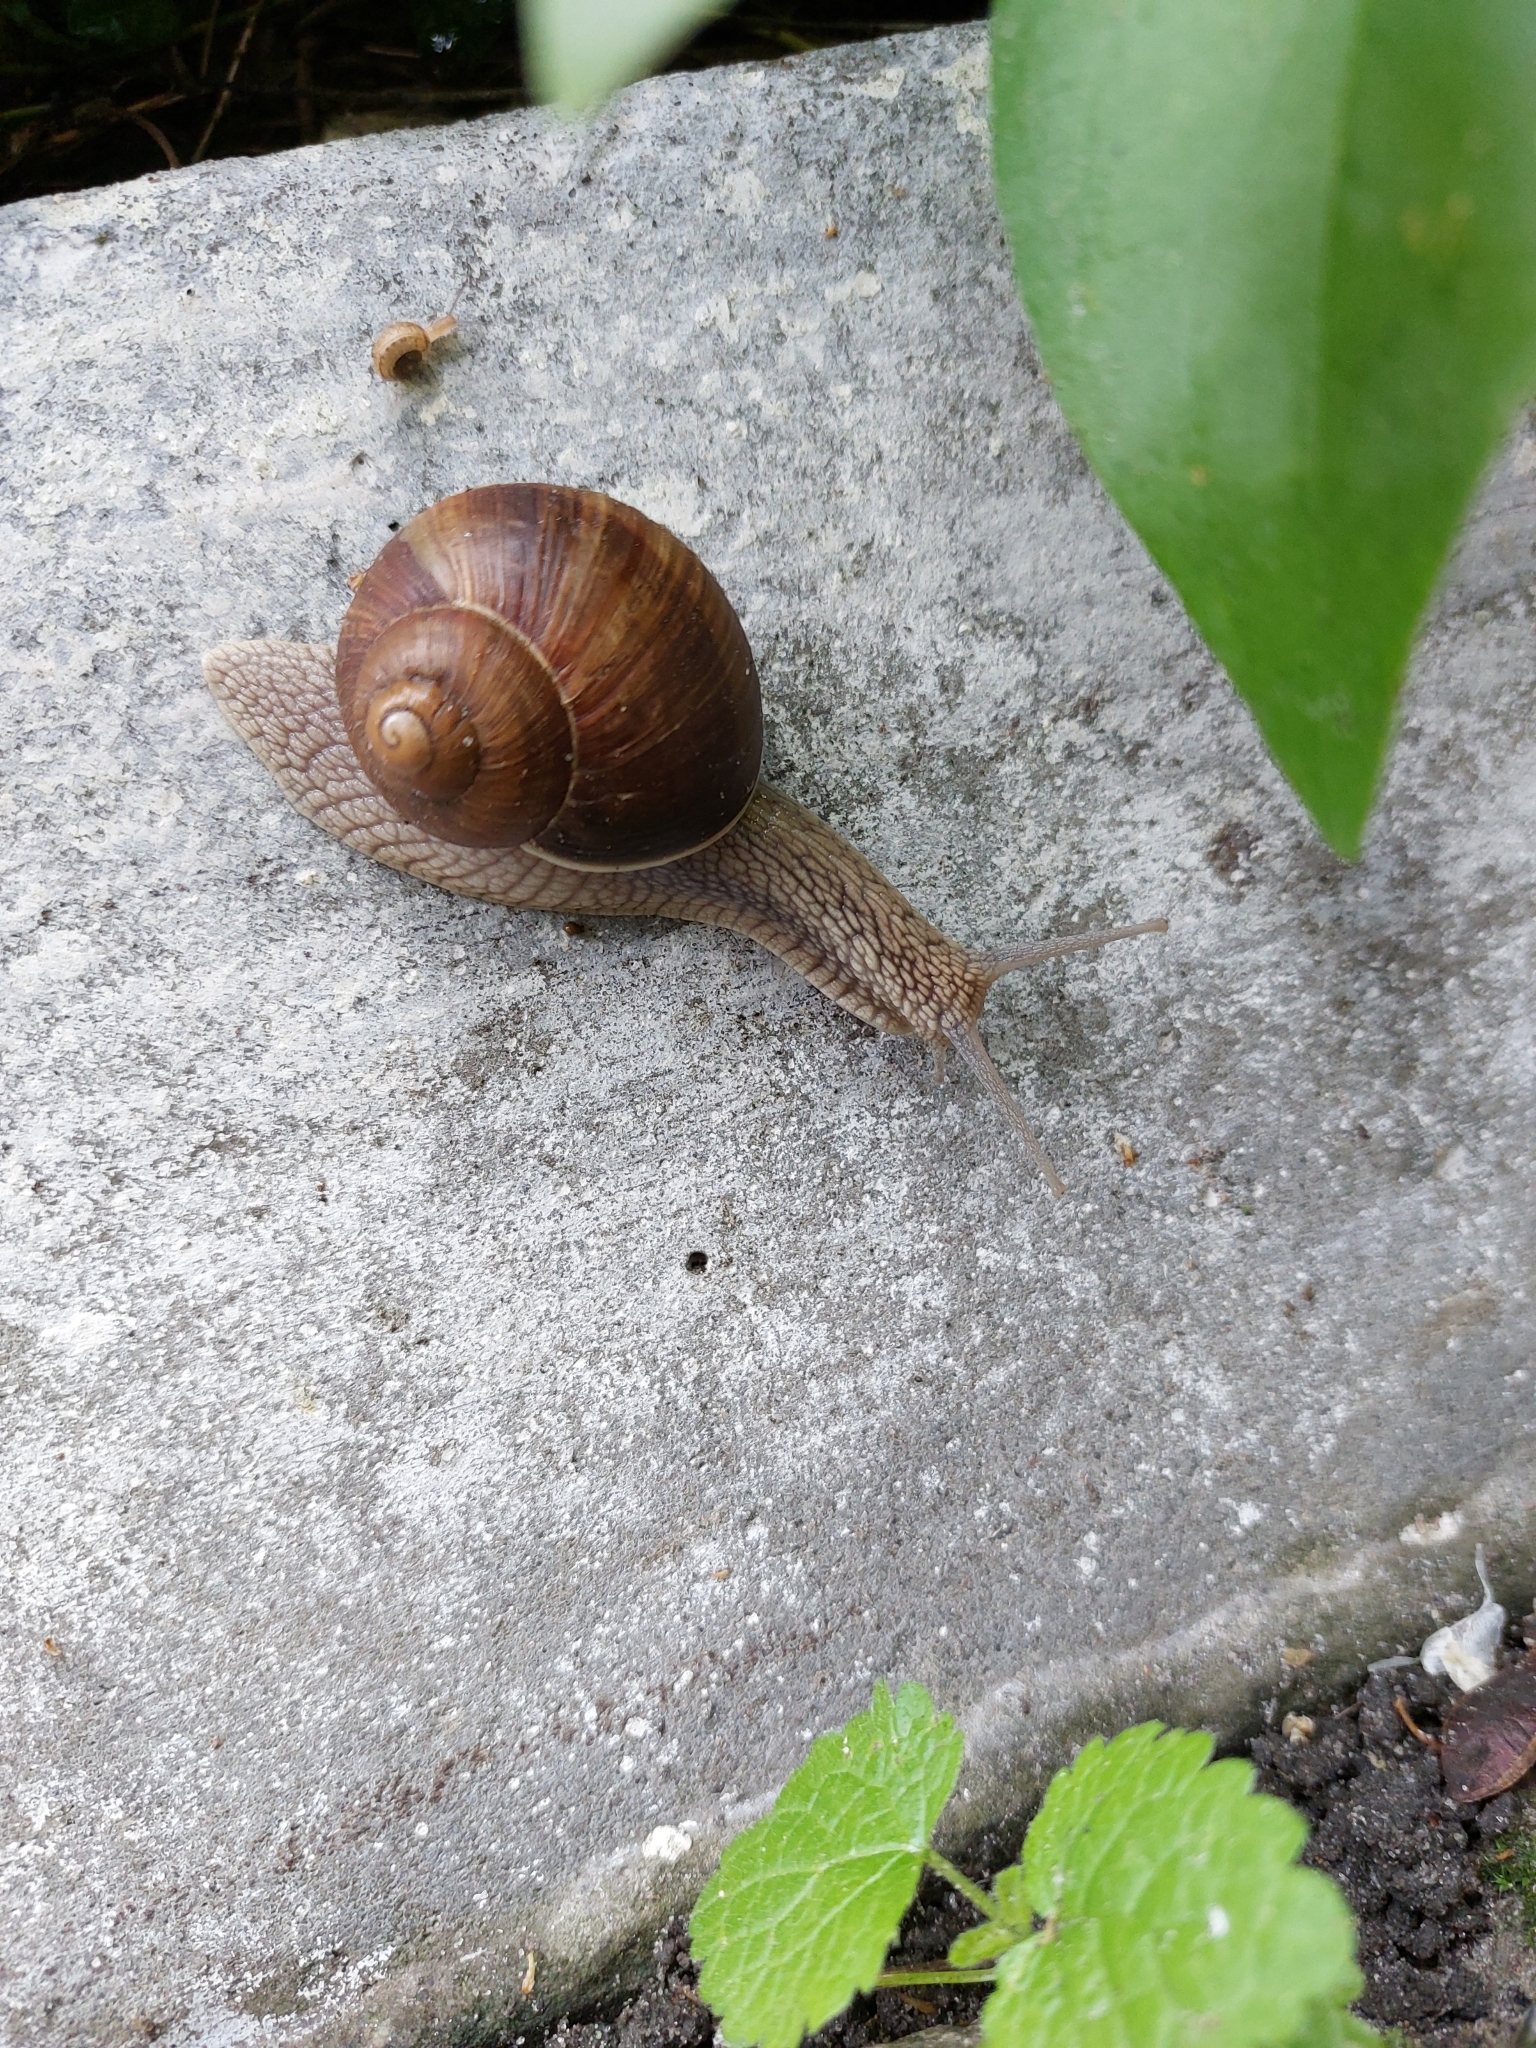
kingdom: Animalia
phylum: Mollusca
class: Gastropoda
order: Stylommatophora
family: Helicidae
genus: Helix
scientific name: Helix pomatia
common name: Roman snail
